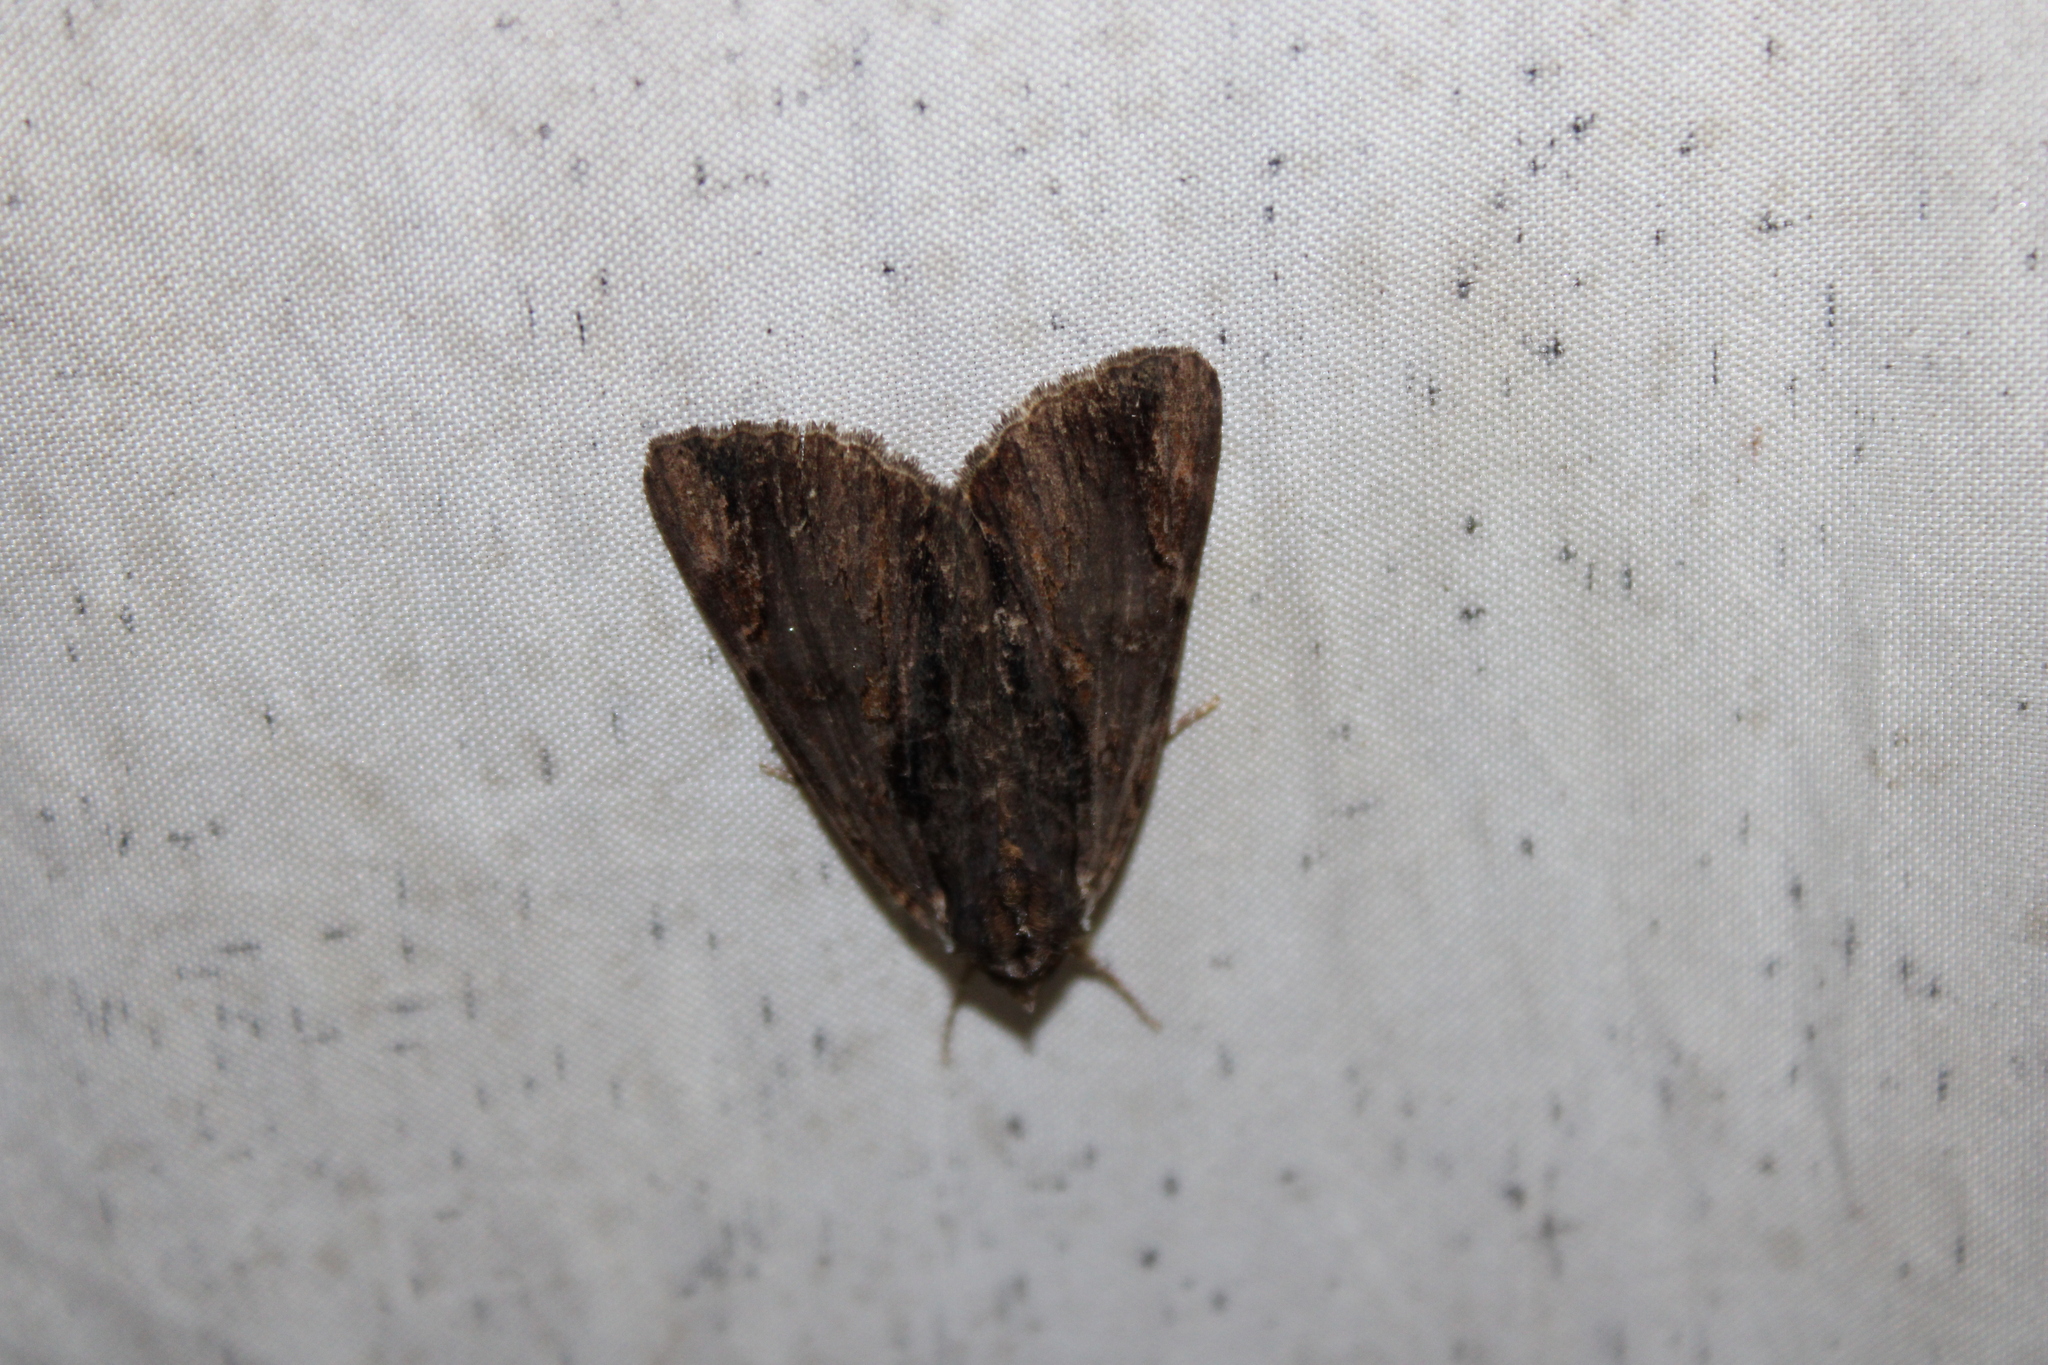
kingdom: Animalia
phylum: Arthropoda
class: Insecta
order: Lepidoptera
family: Erebidae
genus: Catocala
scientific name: Catocala ultronia
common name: Ultronia underwing
